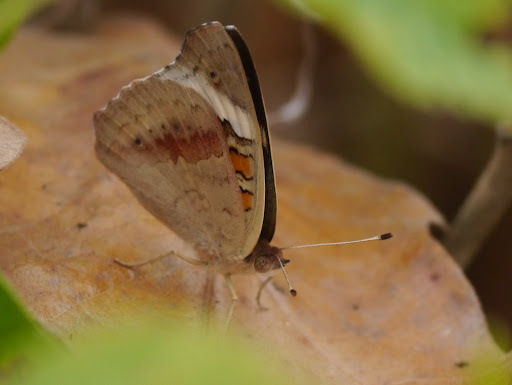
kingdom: Animalia
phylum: Arthropoda
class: Insecta
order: Lepidoptera
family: Nymphalidae
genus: Junonia
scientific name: Junonia coenia
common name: Common buckeye
